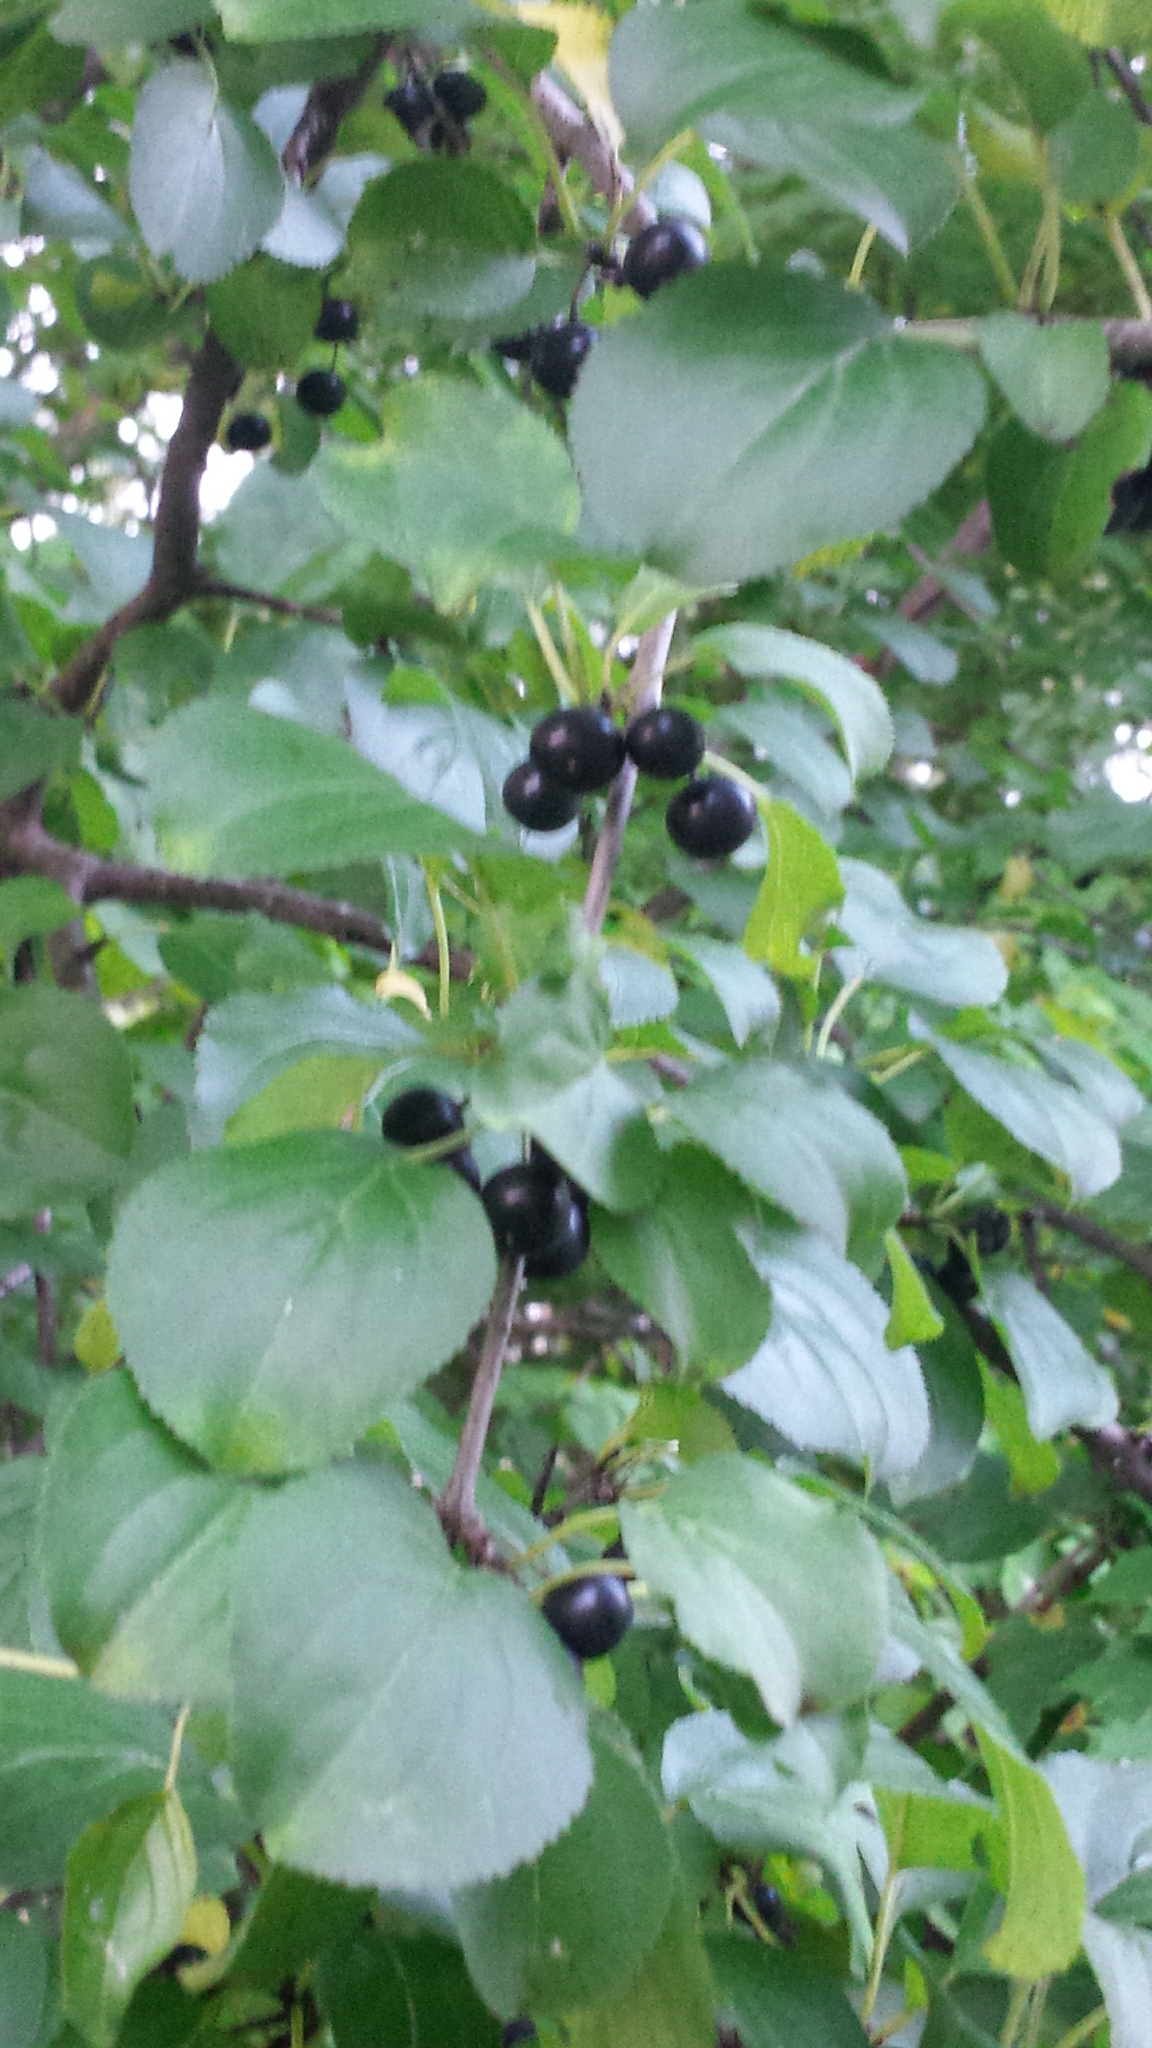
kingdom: Plantae
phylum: Tracheophyta
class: Magnoliopsida
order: Rosales
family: Rhamnaceae
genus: Rhamnus
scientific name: Rhamnus cathartica
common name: Common buckthorn
